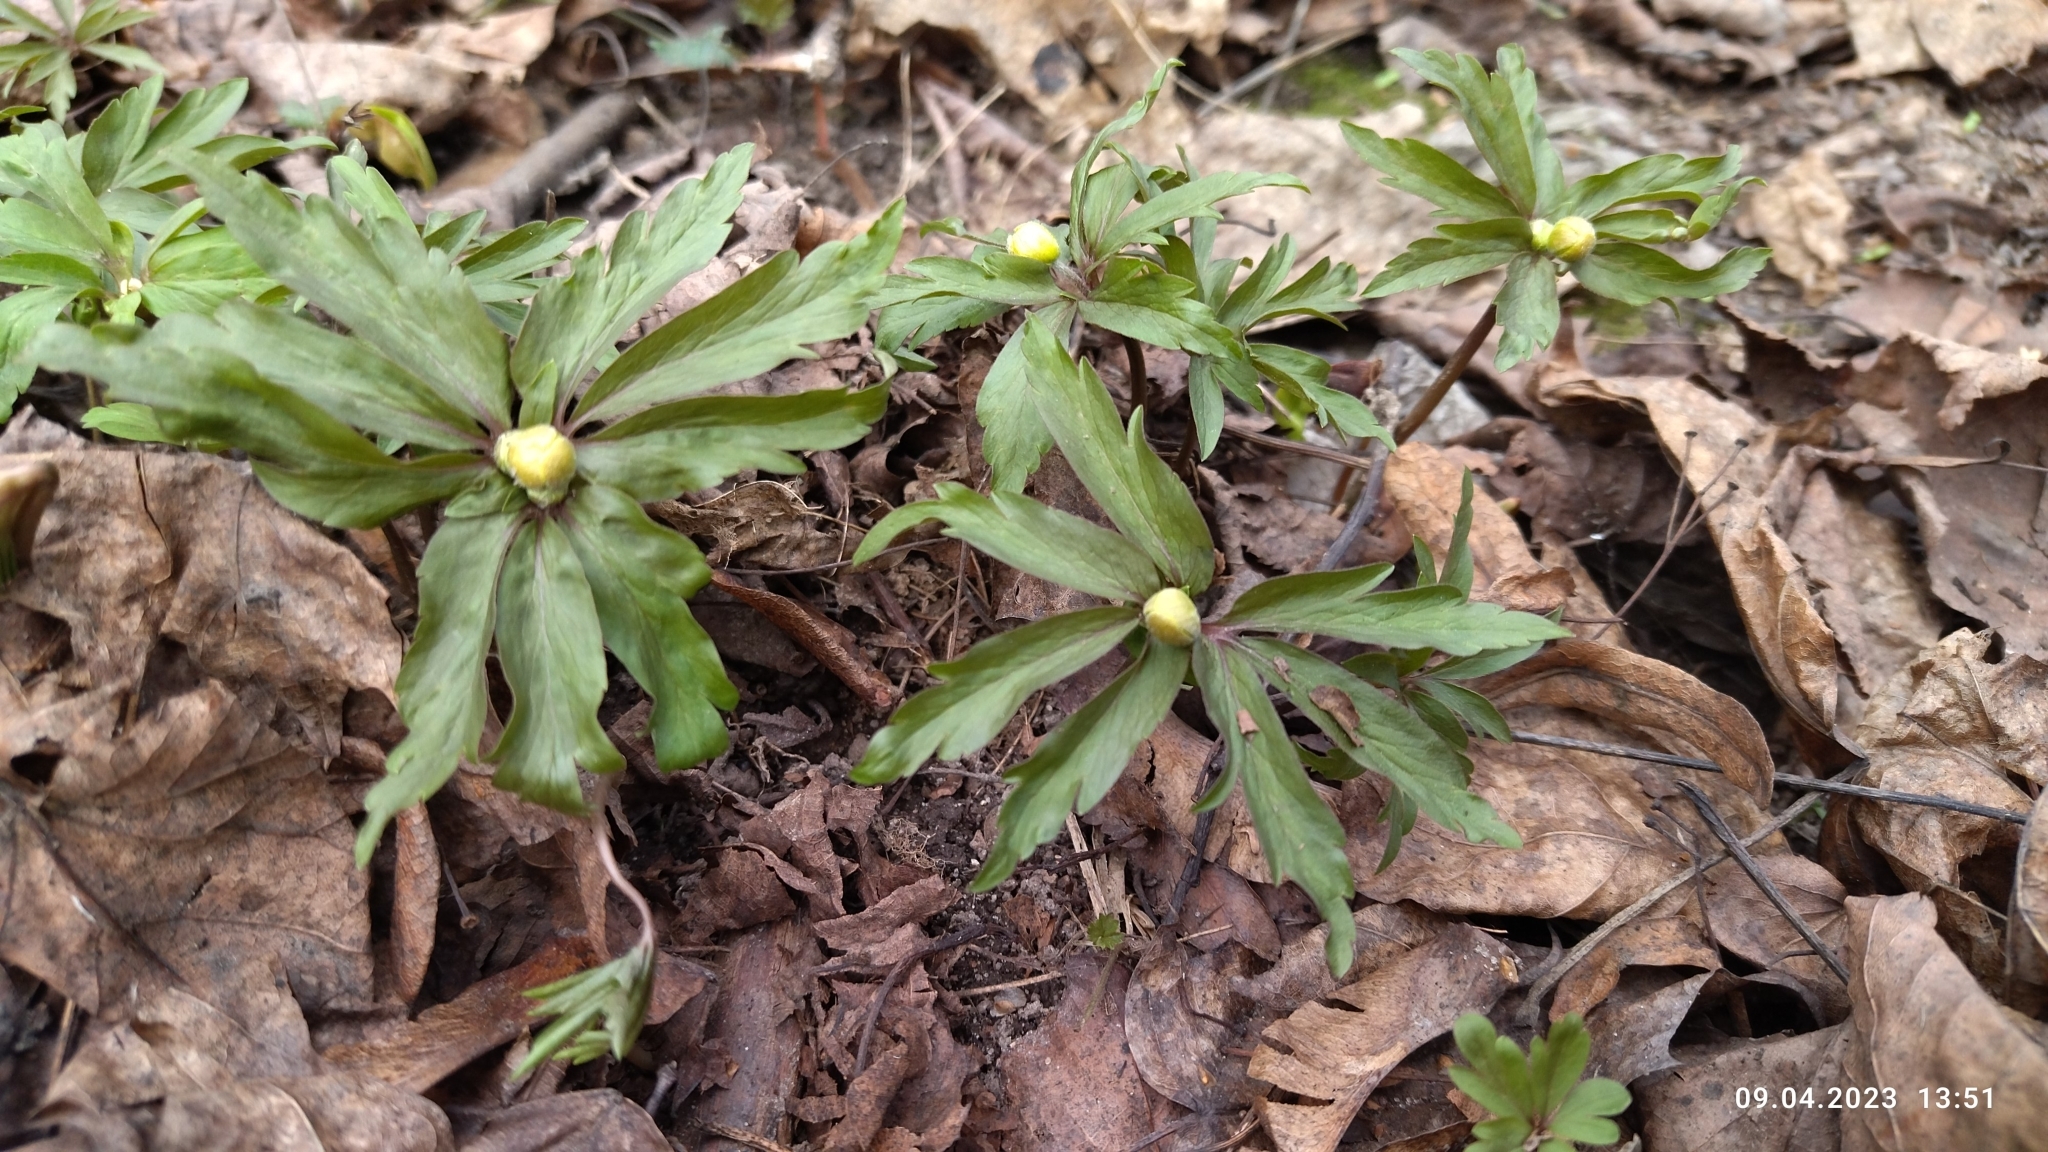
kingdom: Plantae
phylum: Tracheophyta
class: Magnoliopsida
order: Ranunculales
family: Ranunculaceae
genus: Anemone
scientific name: Anemone ranunculoides
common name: Yellow anemone
